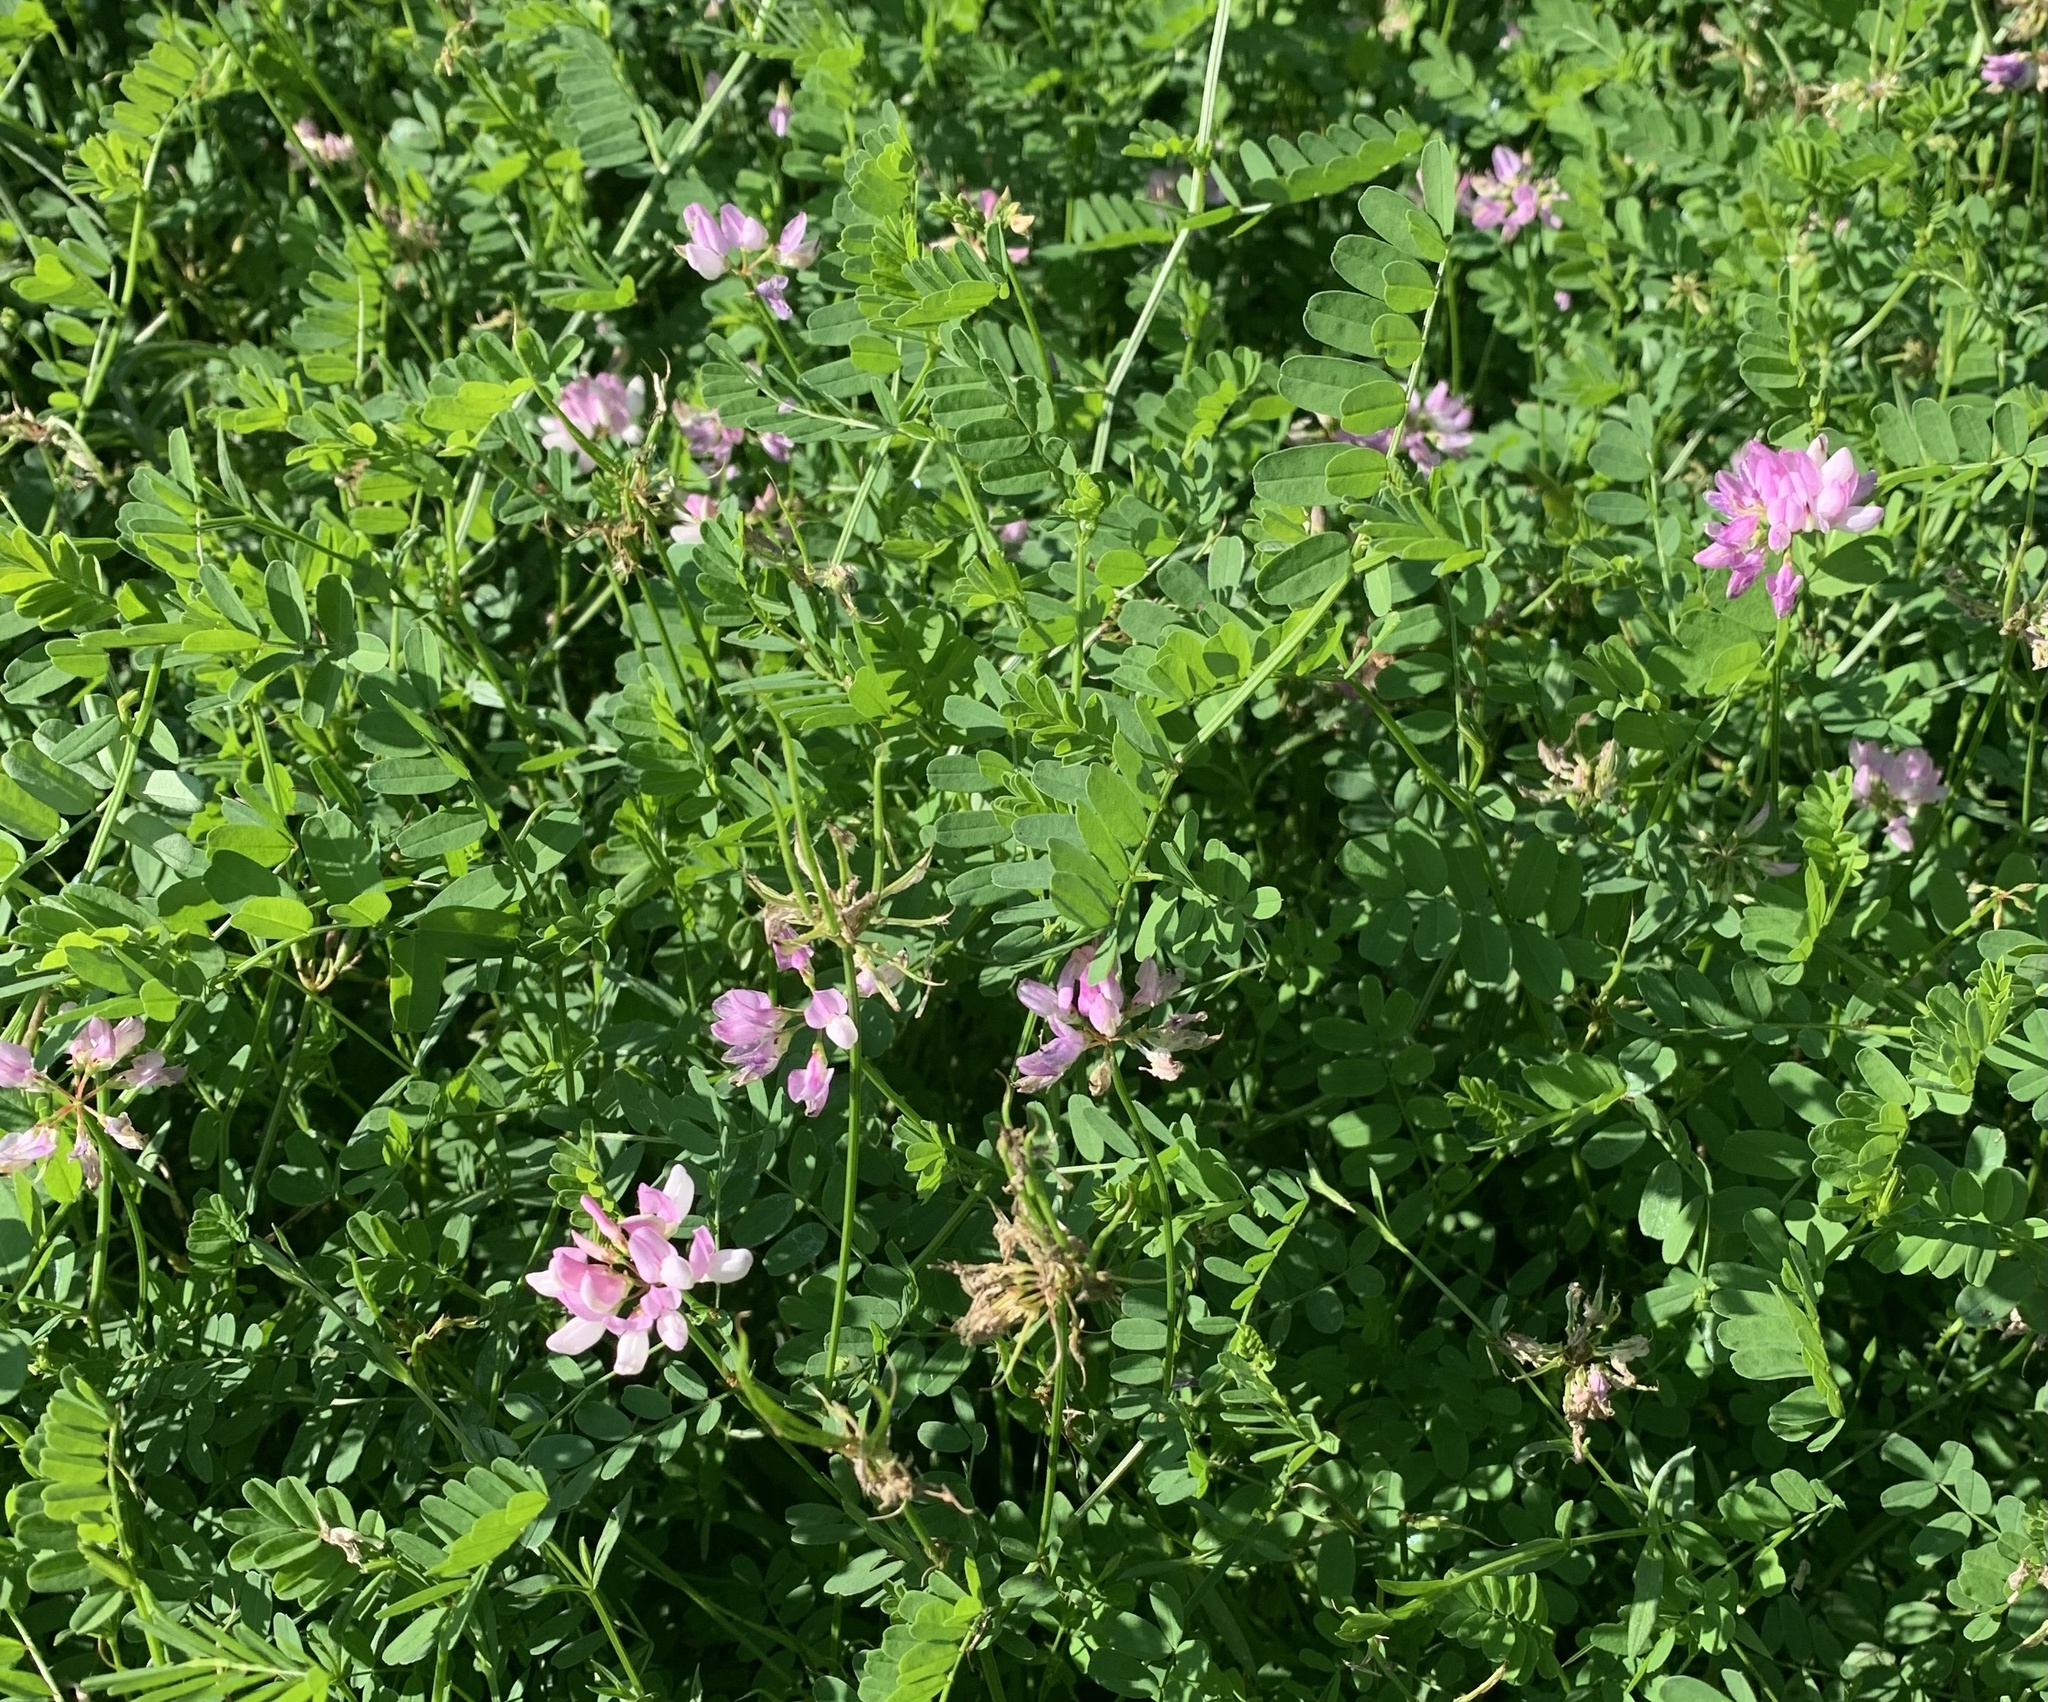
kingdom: Plantae
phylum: Tracheophyta
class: Magnoliopsida
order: Fabales
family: Fabaceae
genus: Coronilla
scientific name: Coronilla varia
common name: Crownvetch
